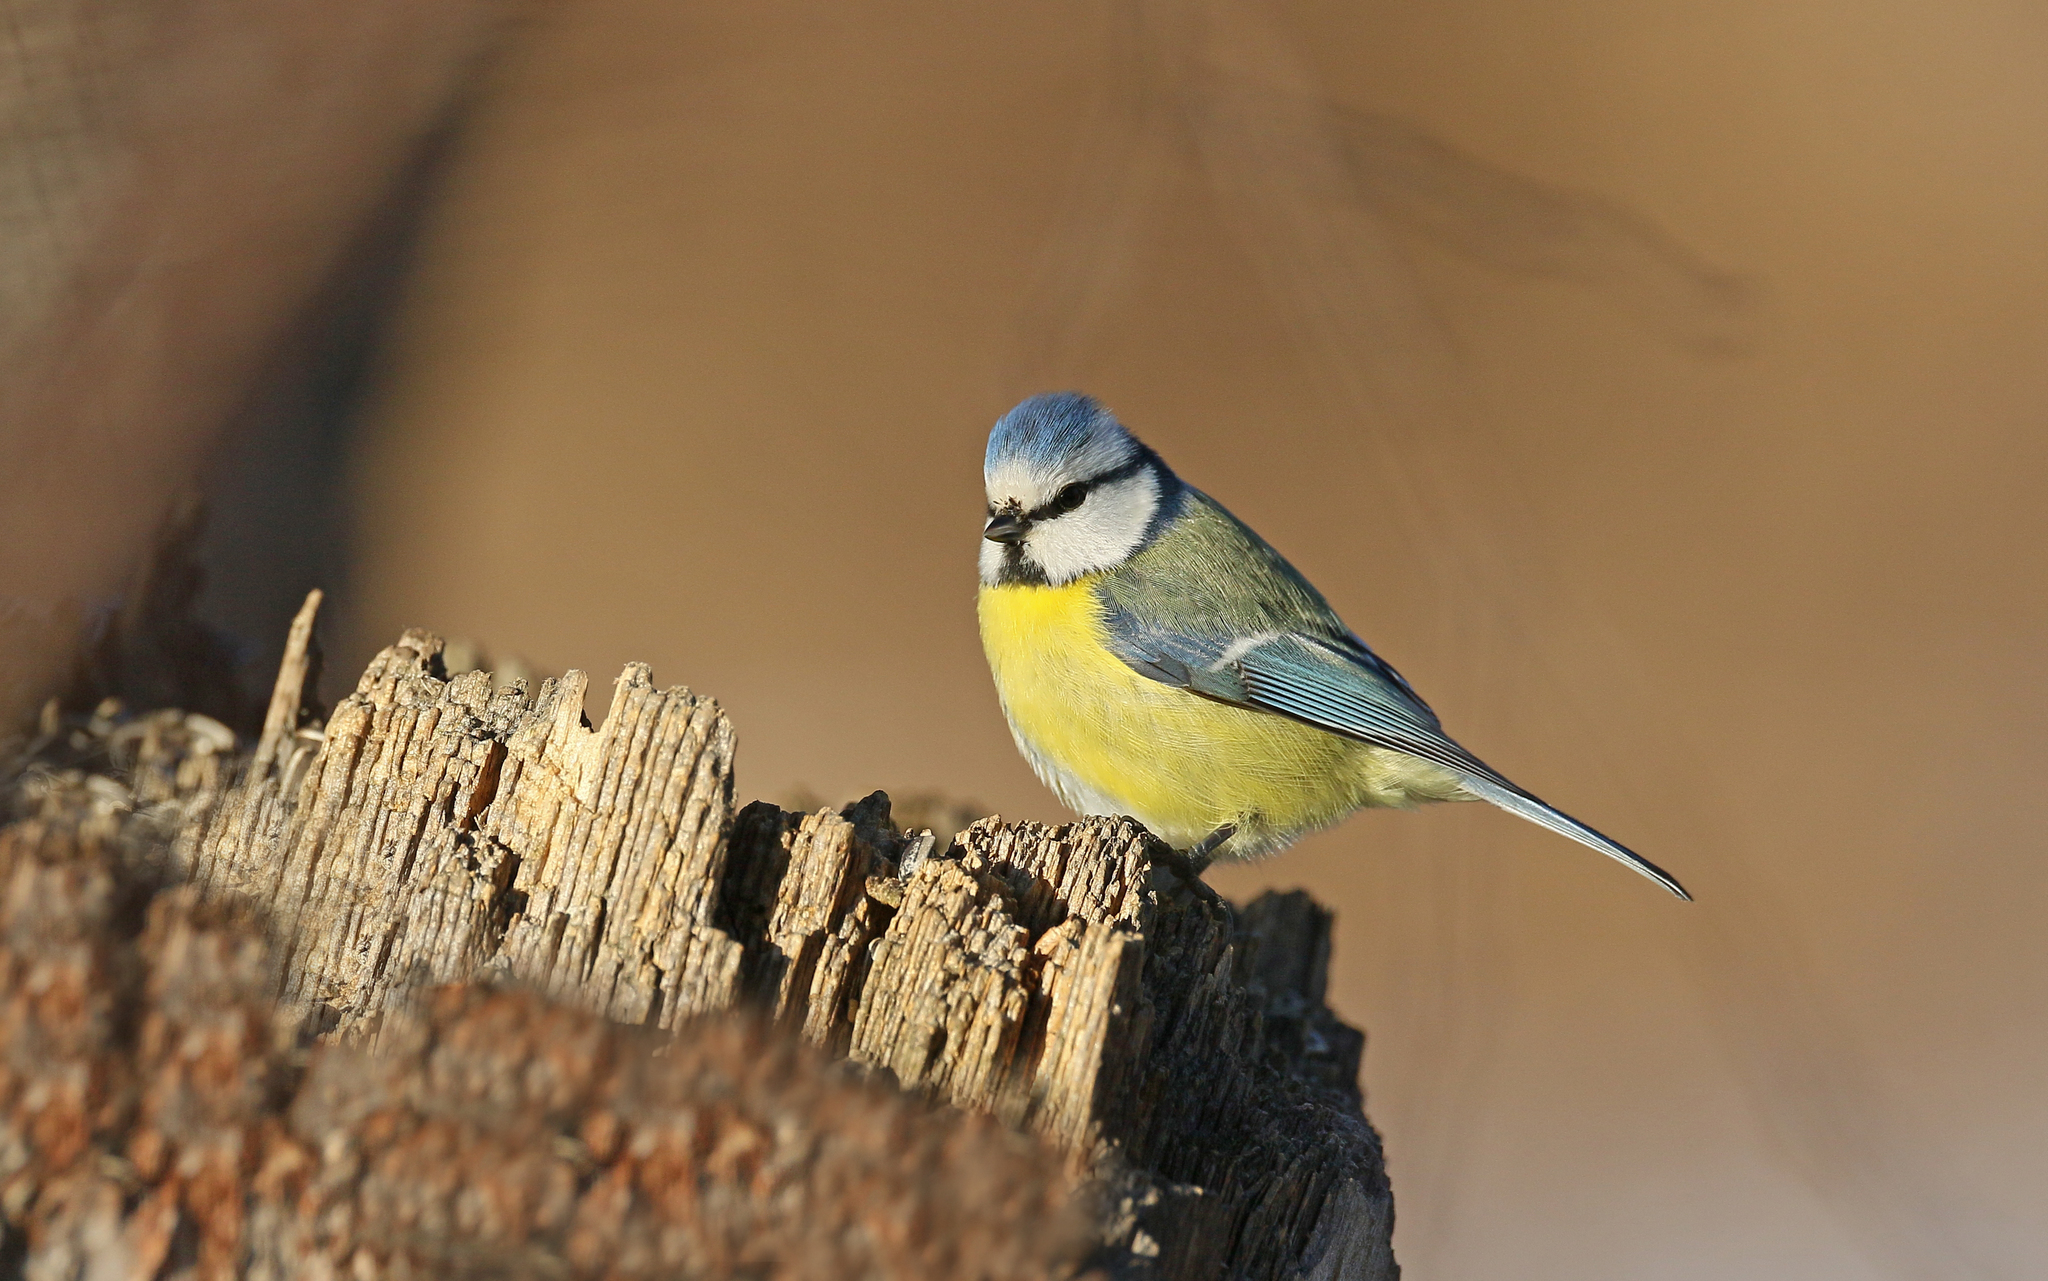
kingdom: Animalia
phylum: Chordata
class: Aves
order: Passeriformes
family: Paridae
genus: Cyanistes
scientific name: Cyanistes caeruleus
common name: Eurasian blue tit
